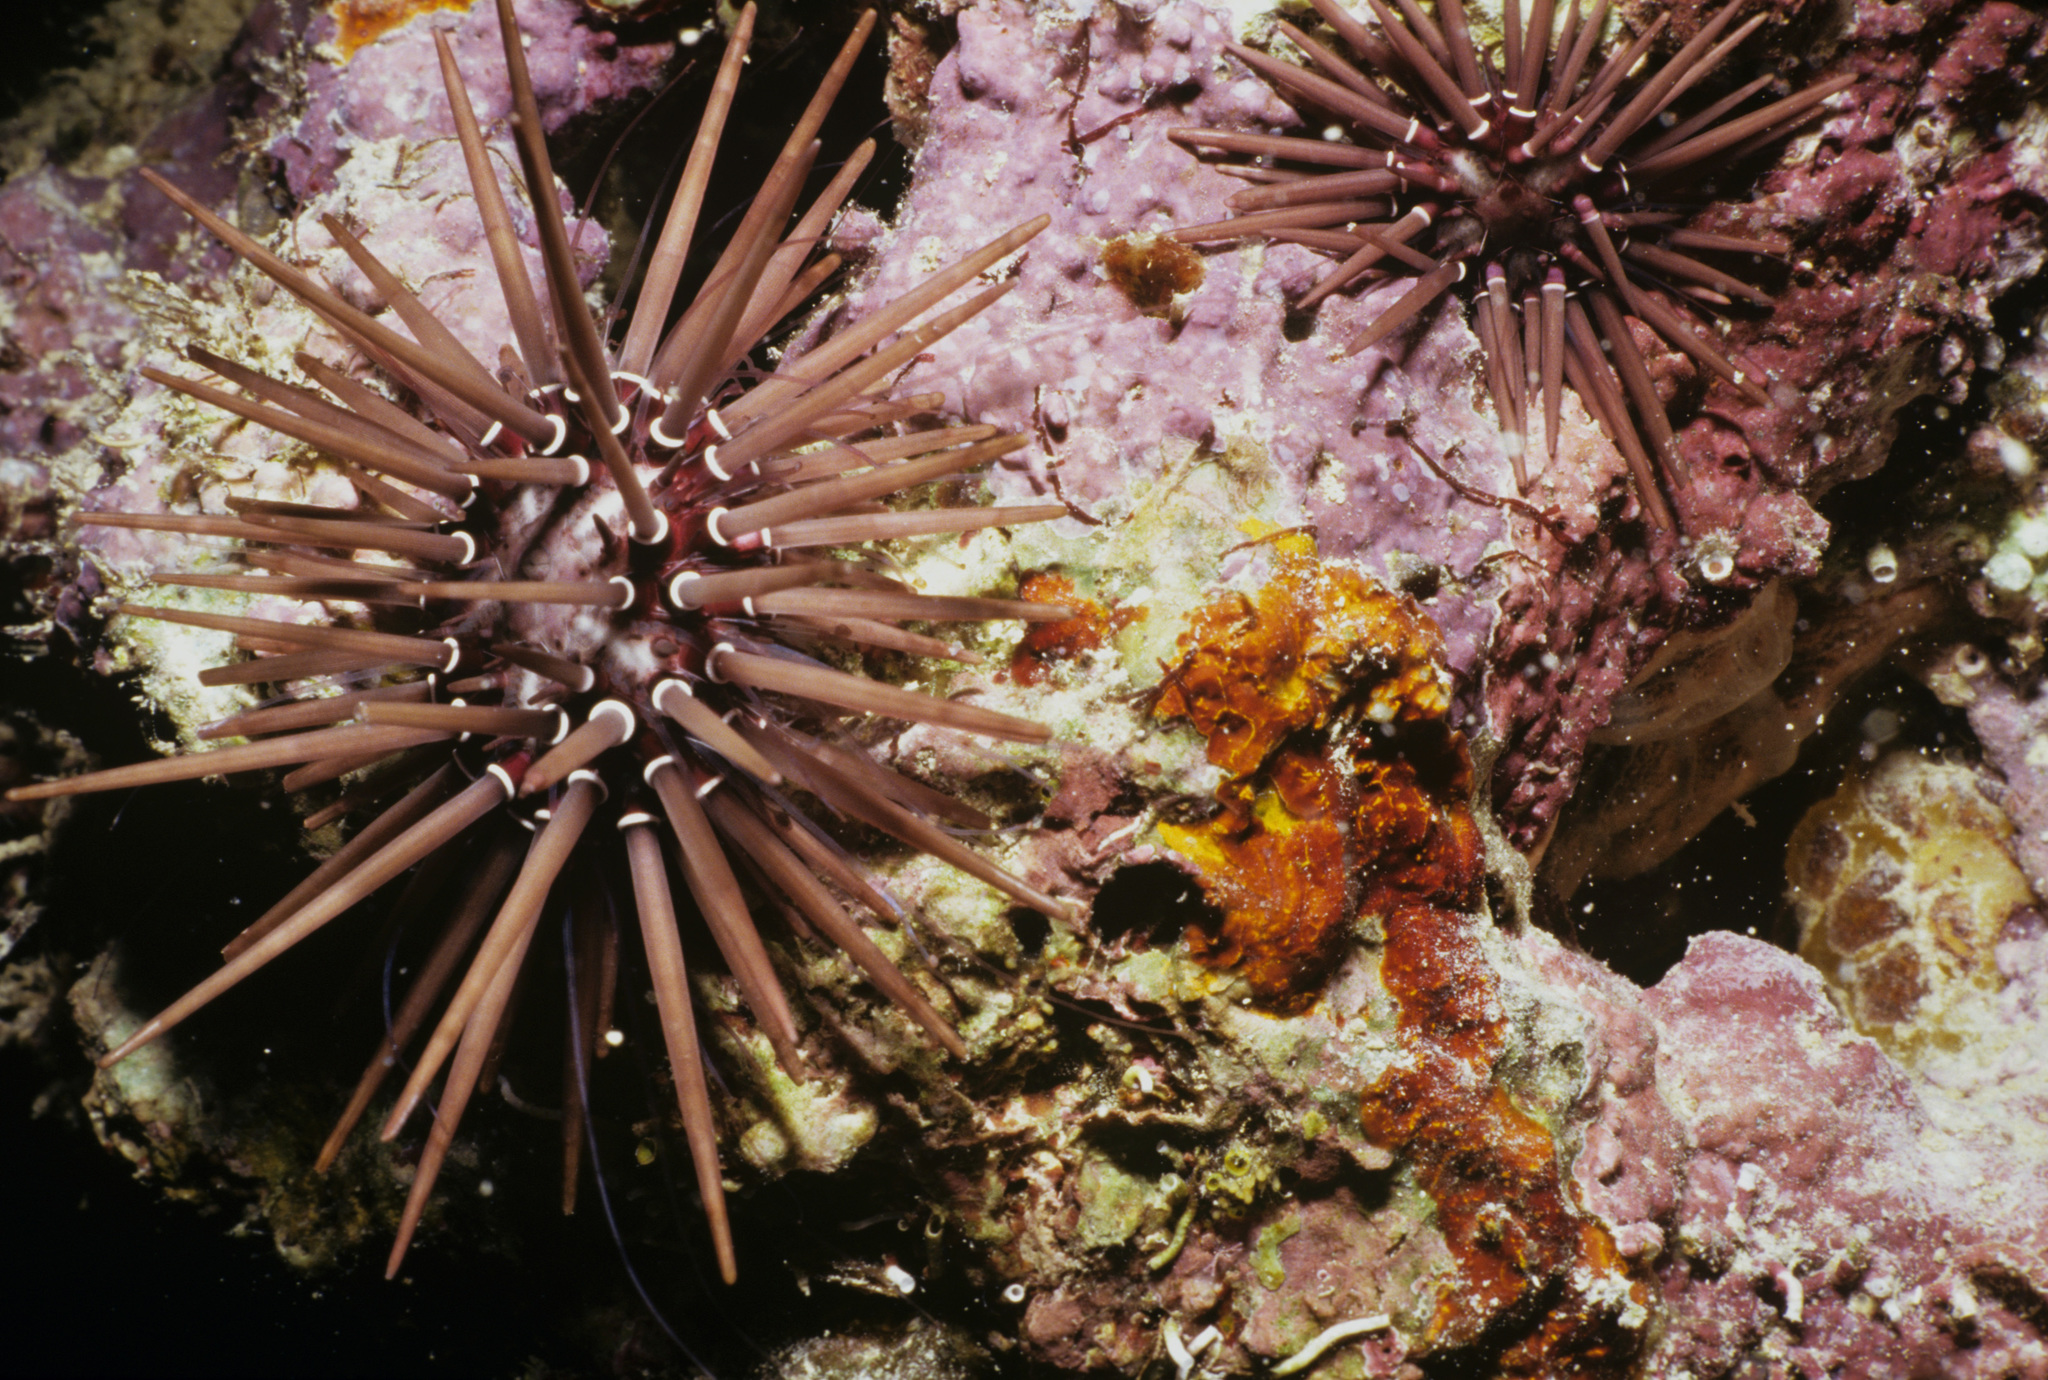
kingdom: Animalia
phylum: Echinodermata
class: Echinoidea
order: Camarodonta
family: Echinometridae
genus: Echinometra
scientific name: Echinometra mathaei
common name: Rock-boring urchin
